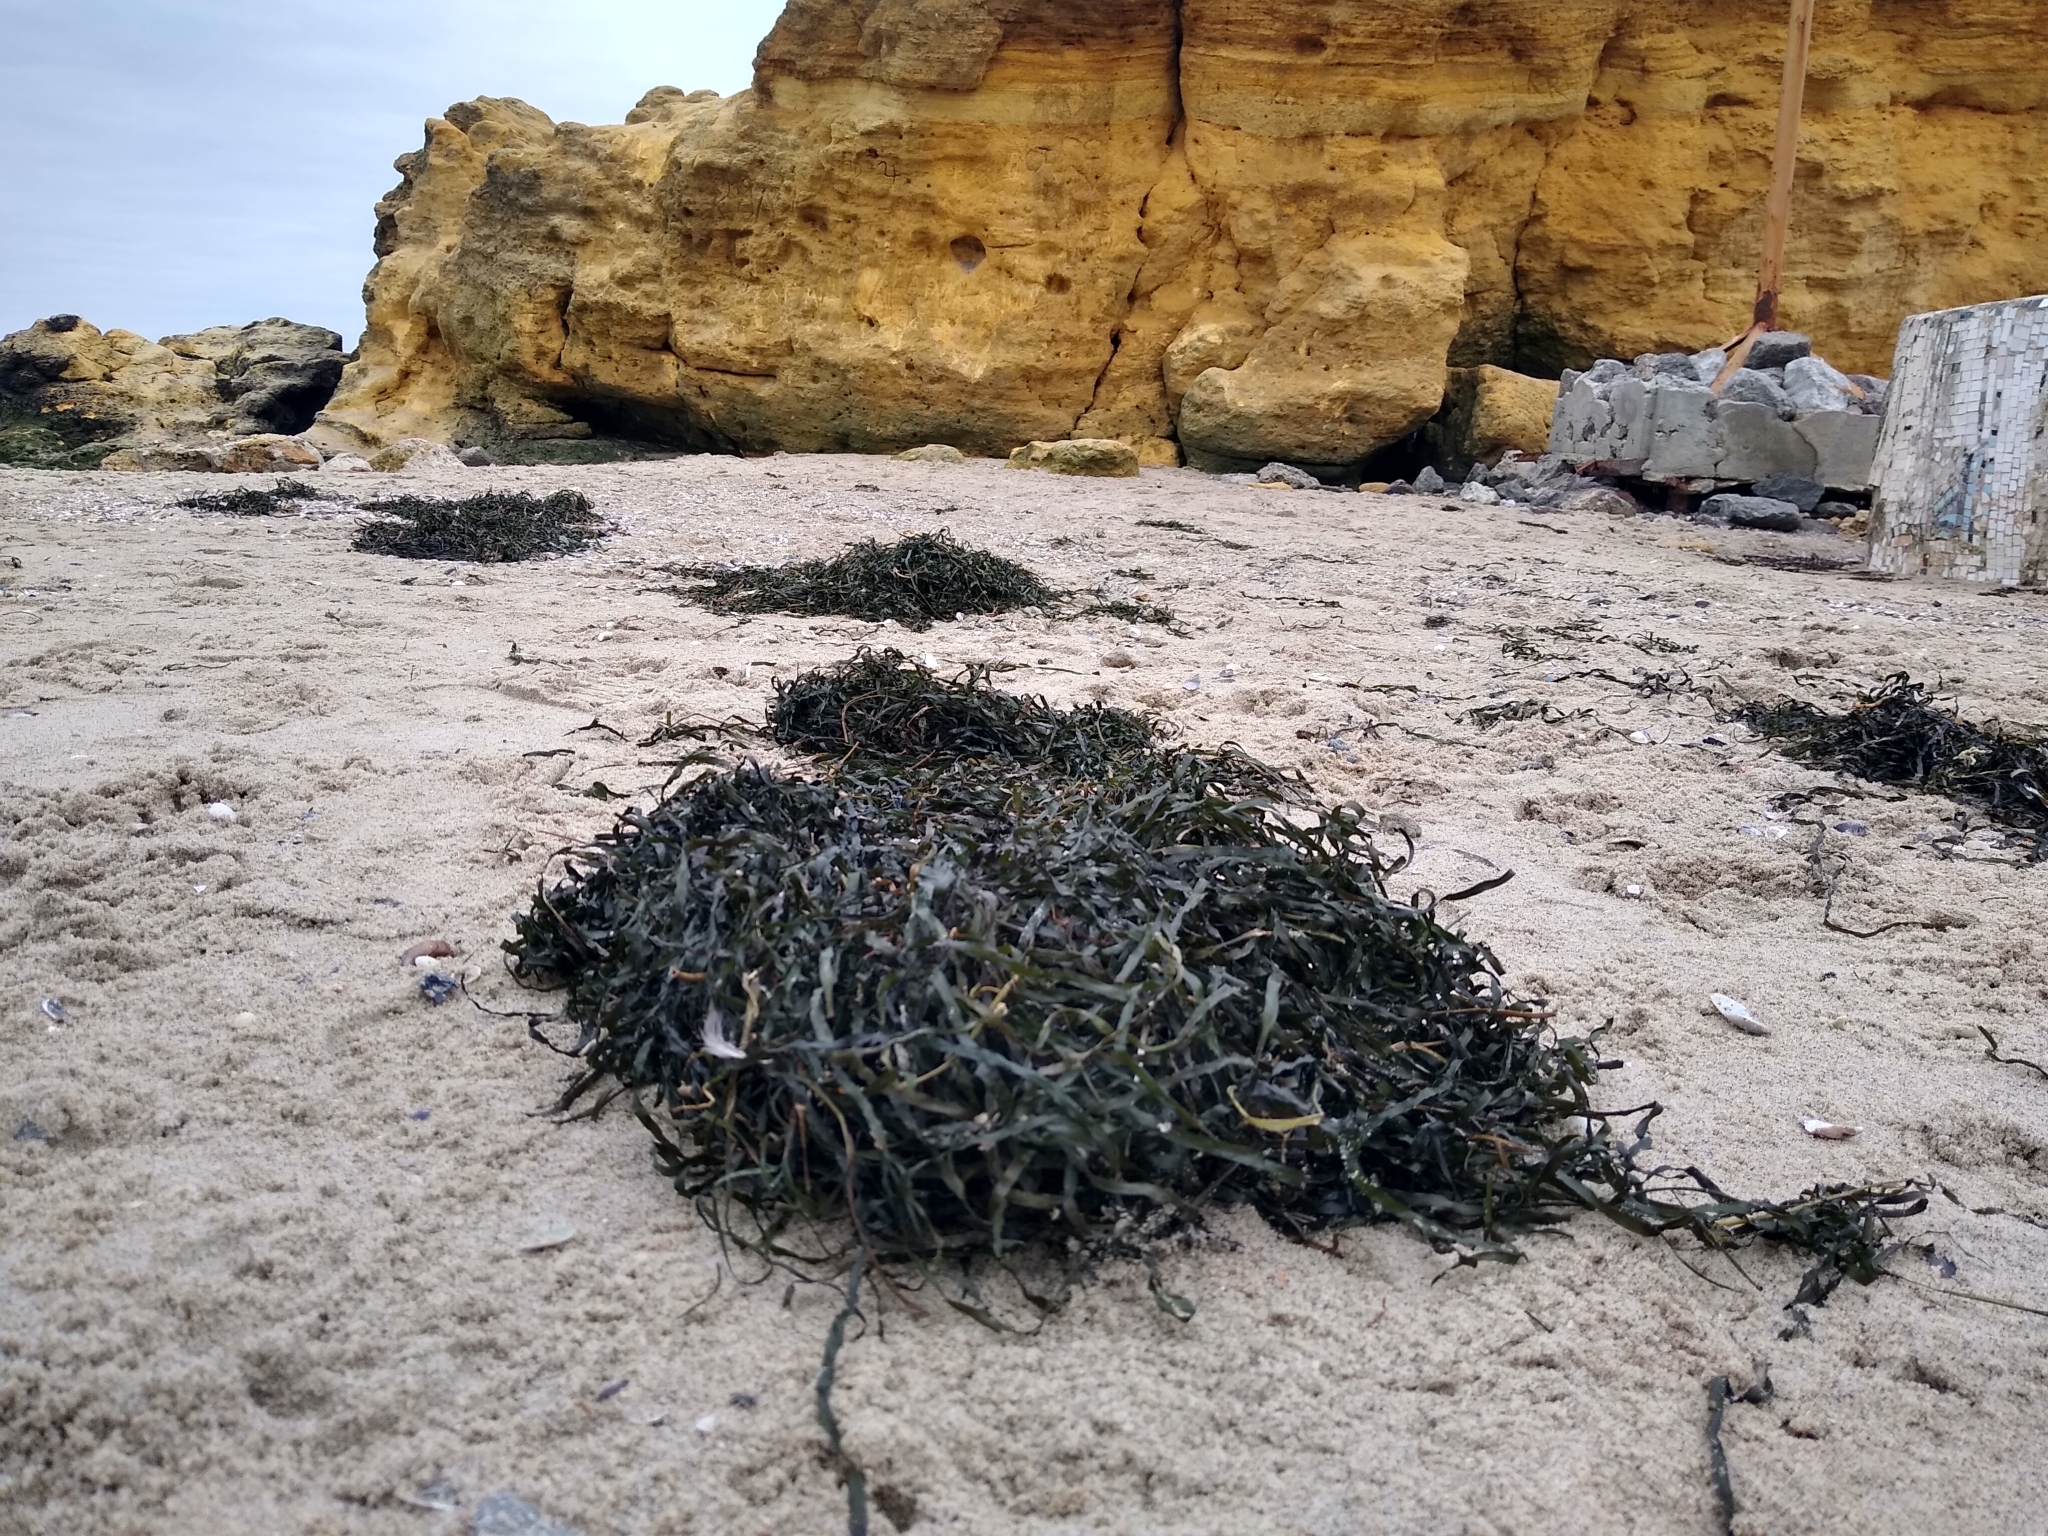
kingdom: Plantae
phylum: Tracheophyta
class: Liliopsida
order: Alismatales
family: Zosteraceae
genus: Zostera
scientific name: Zostera marina
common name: Eelgrass
